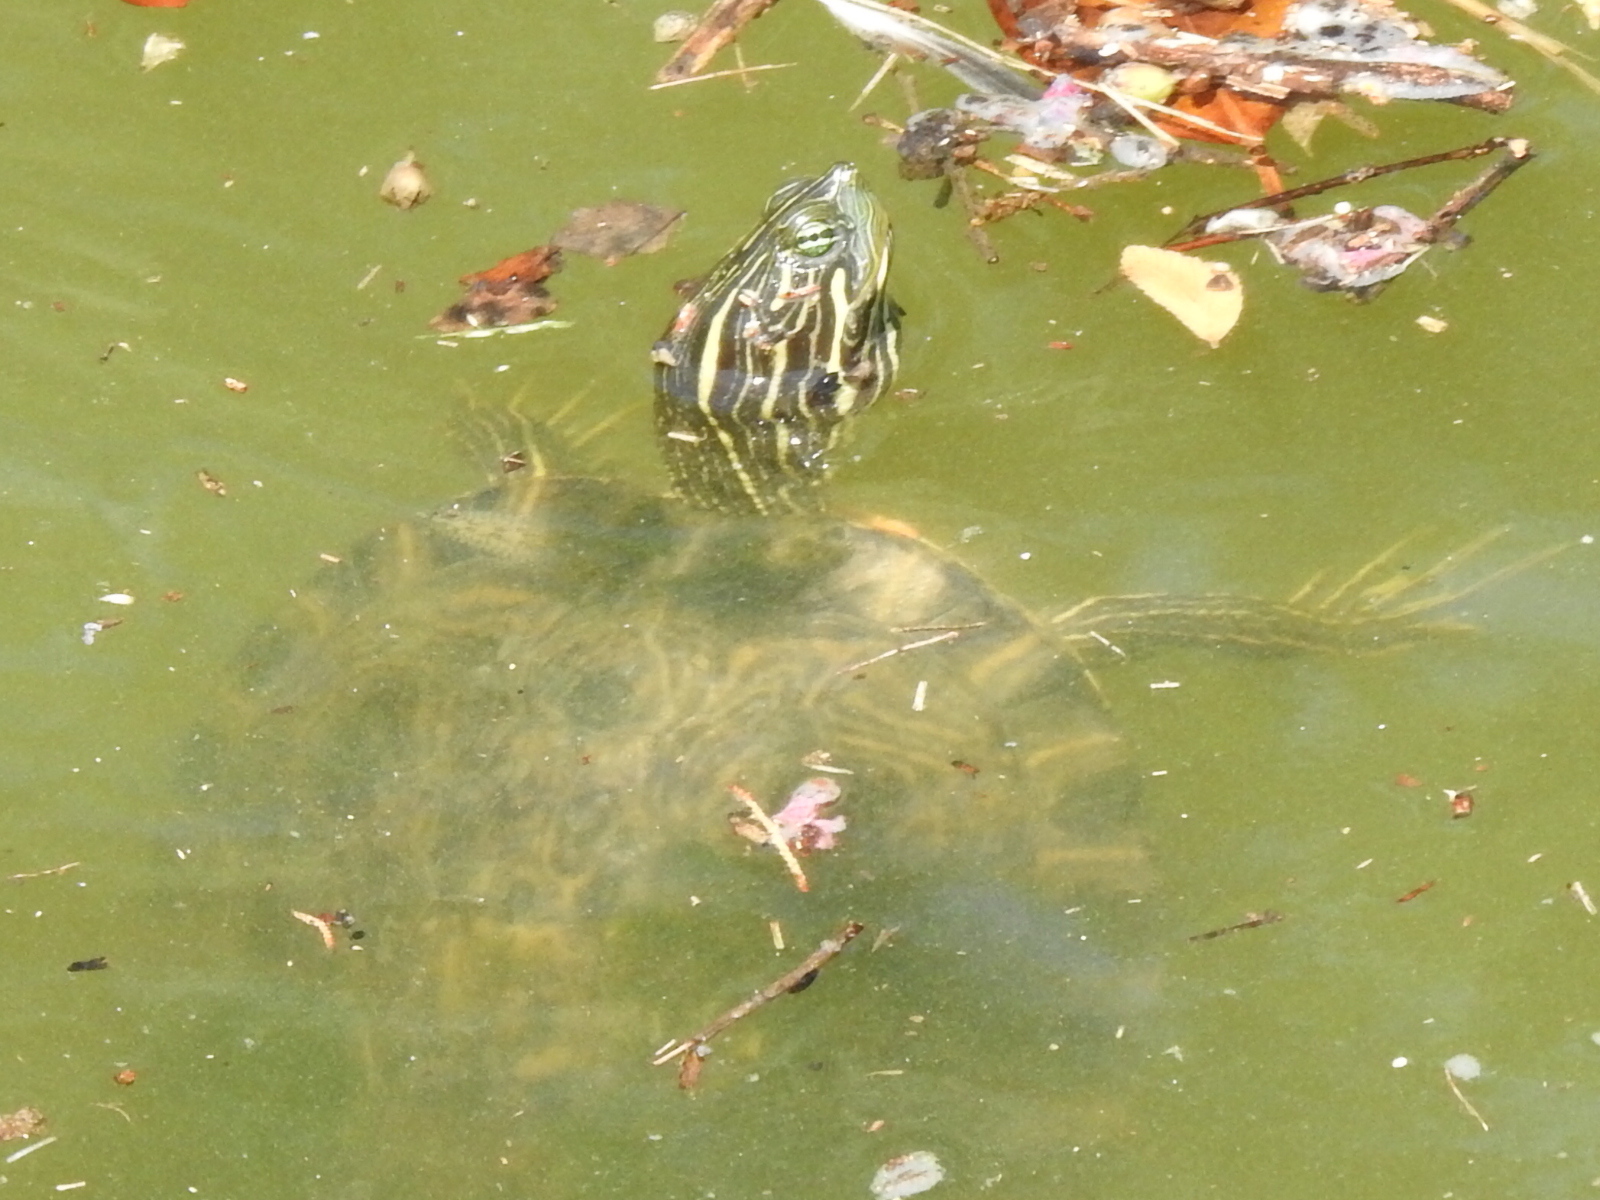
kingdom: Animalia
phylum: Chordata
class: Testudines
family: Emydidae
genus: Pseudemys
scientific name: Pseudemys concinna
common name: Eastern river cooter
